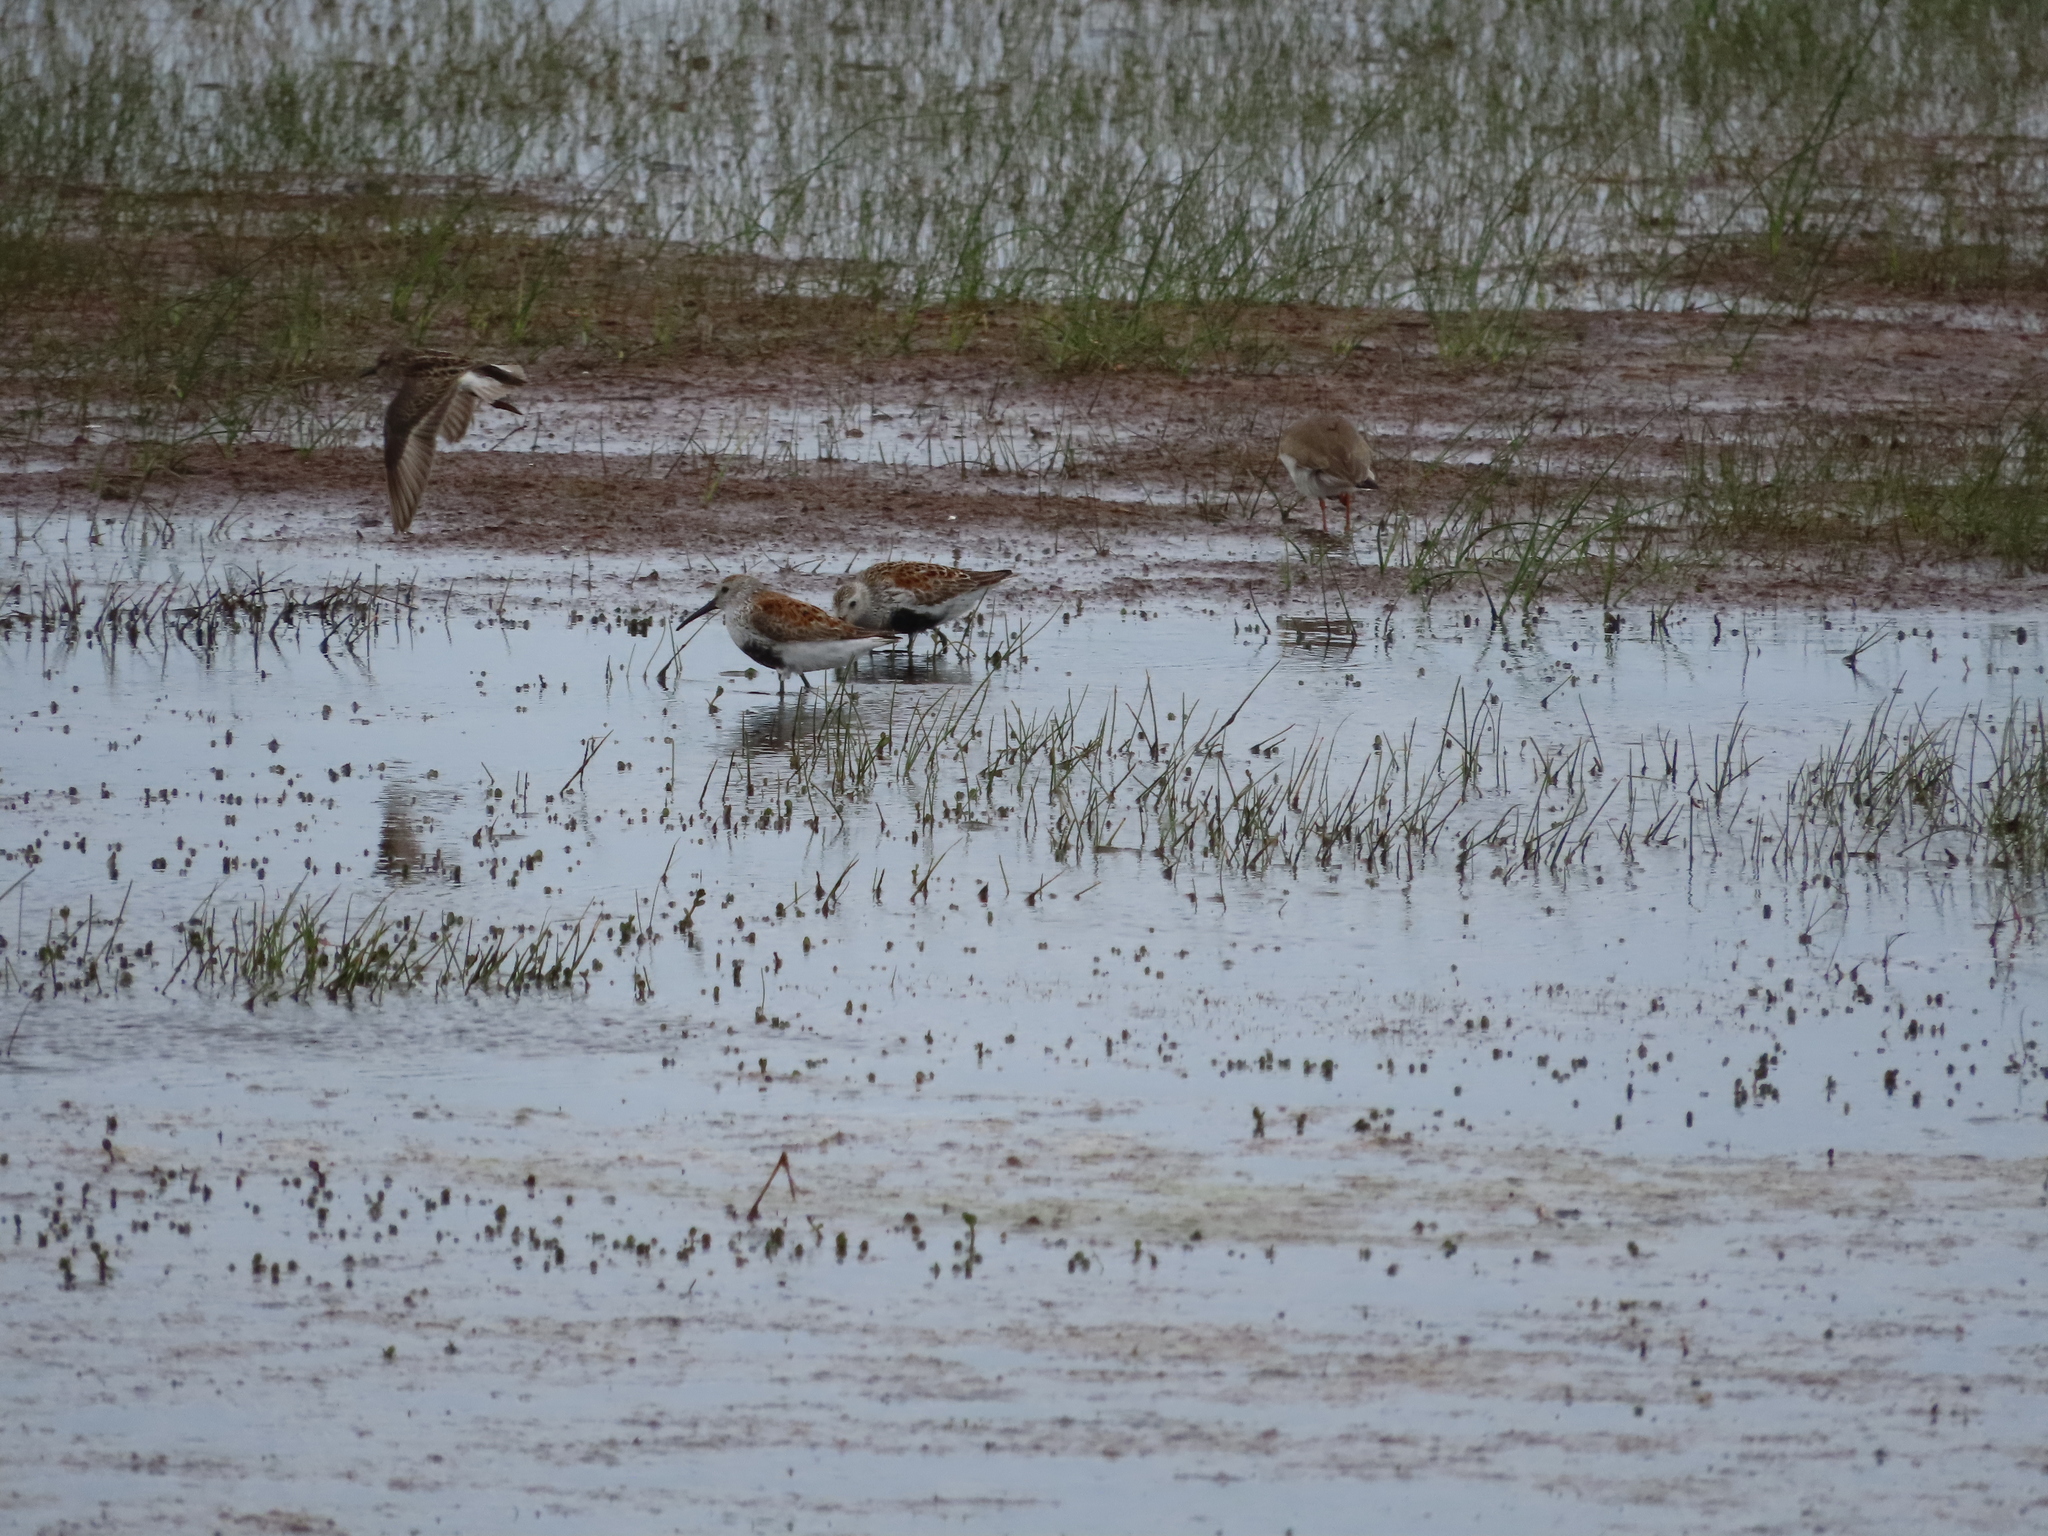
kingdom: Animalia
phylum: Chordata
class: Aves
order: Charadriiformes
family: Scolopacidae
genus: Calidris
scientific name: Calidris alpina
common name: Dunlin
